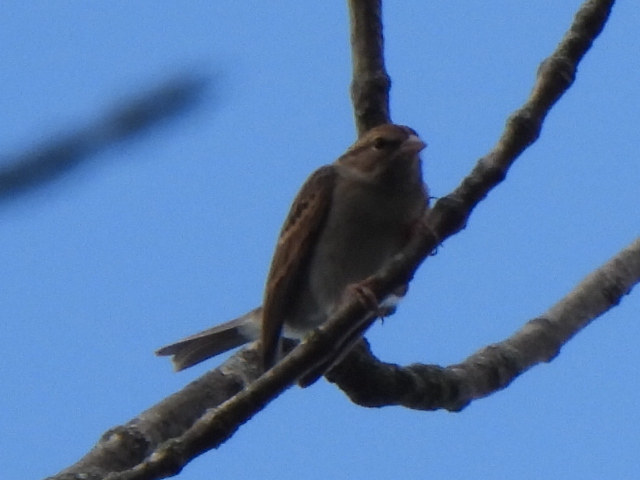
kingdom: Animalia
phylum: Chordata
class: Aves
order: Passeriformes
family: Passerellidae
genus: Spizella
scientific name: Spizella passerina
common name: Chipping sparrow
